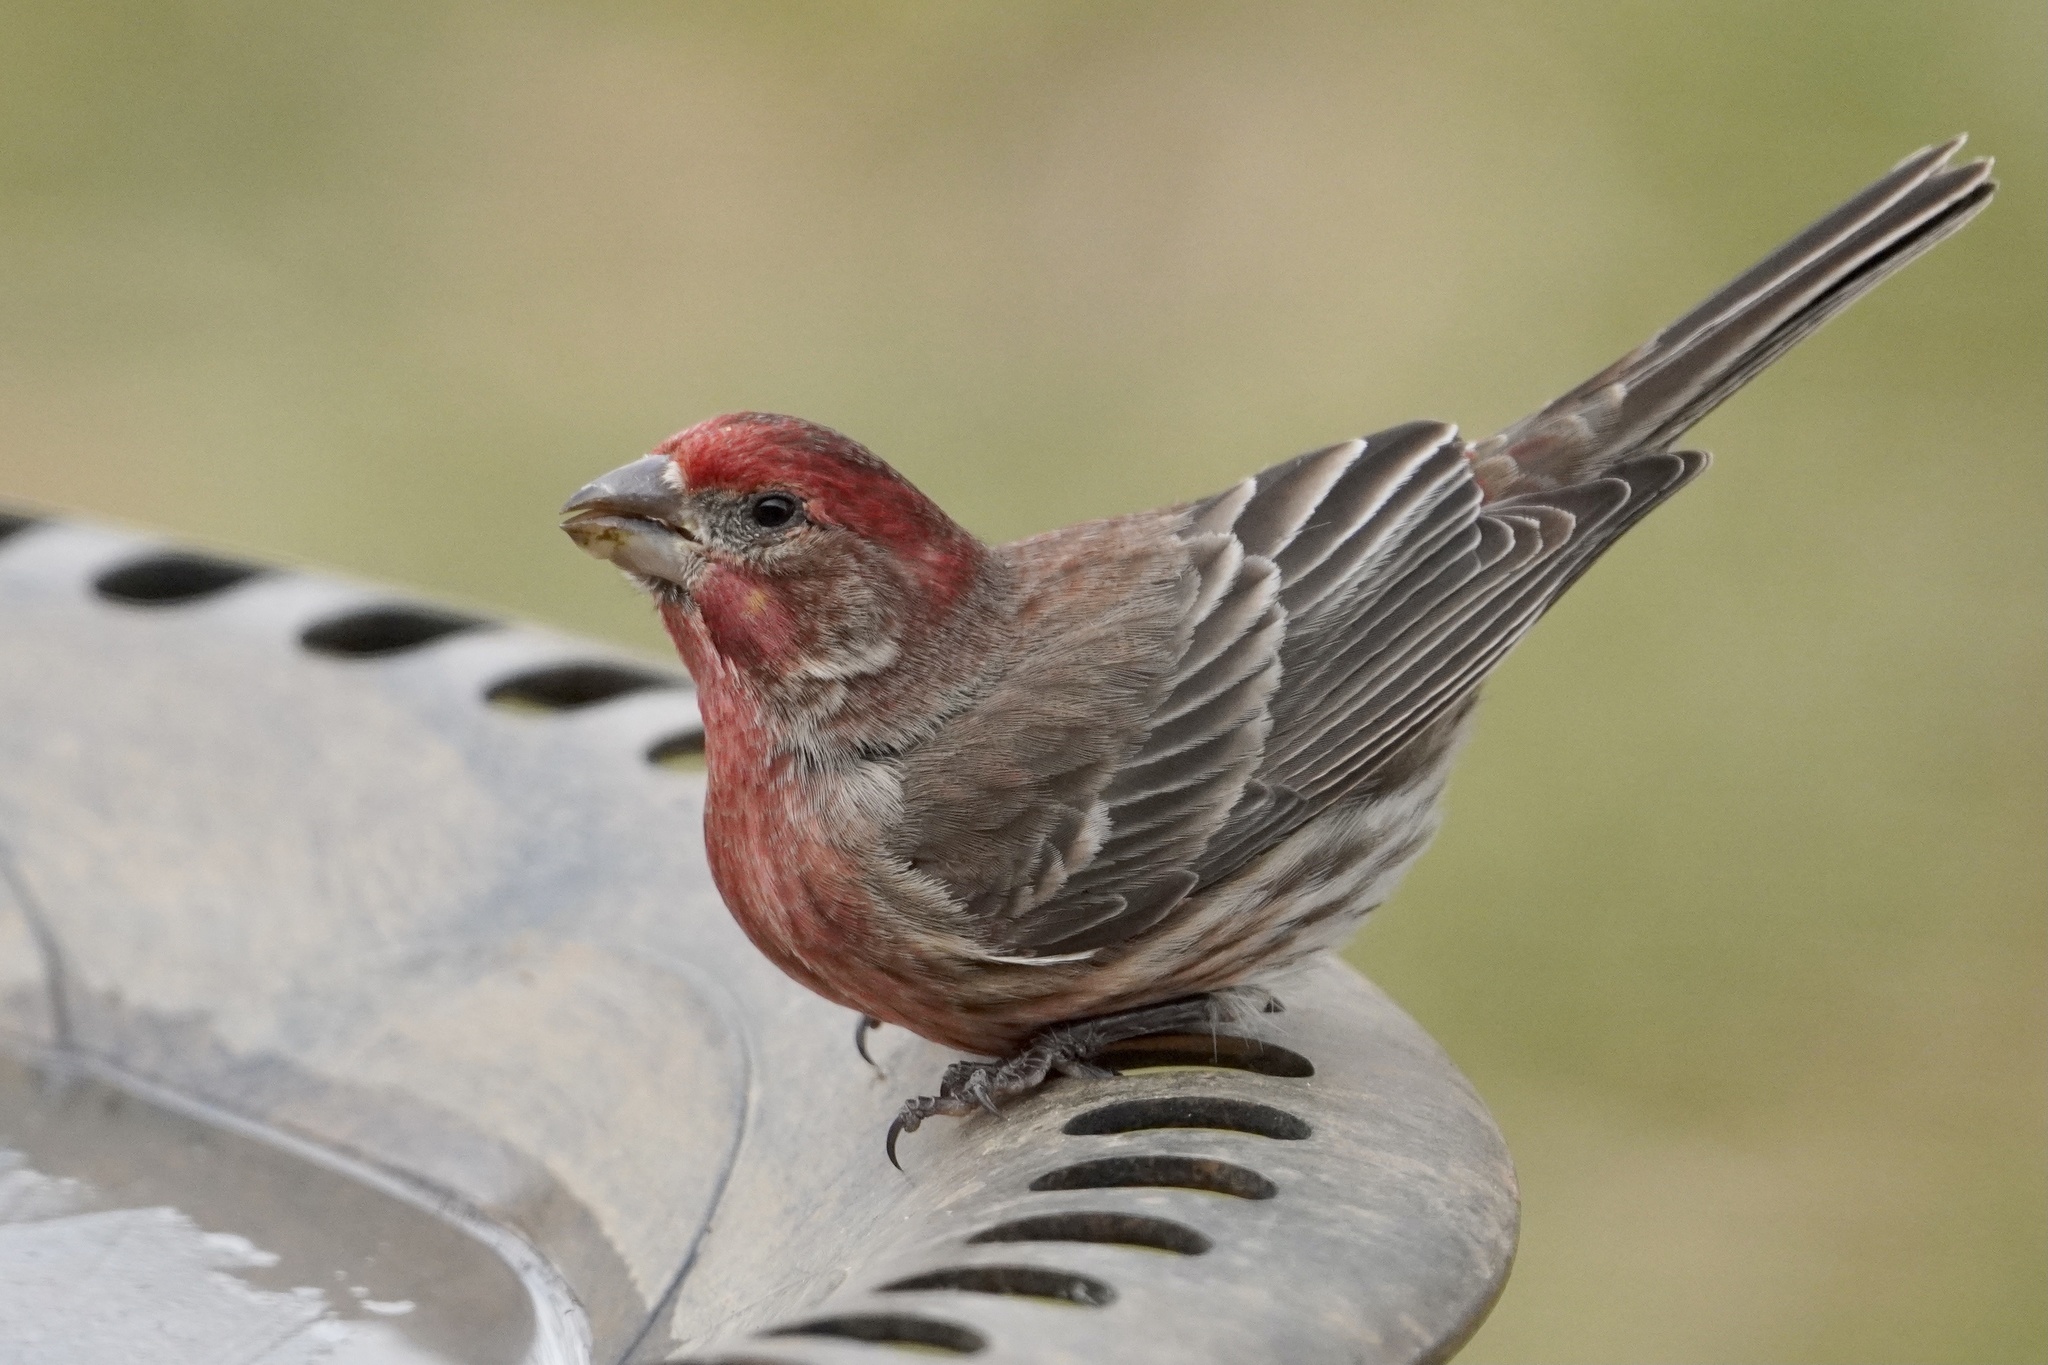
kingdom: Animalia
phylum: Chordata
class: Aves
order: Passeriformes
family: Fringillidae
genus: Haemorhous
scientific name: Haemorhous mexicanus
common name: House finch
